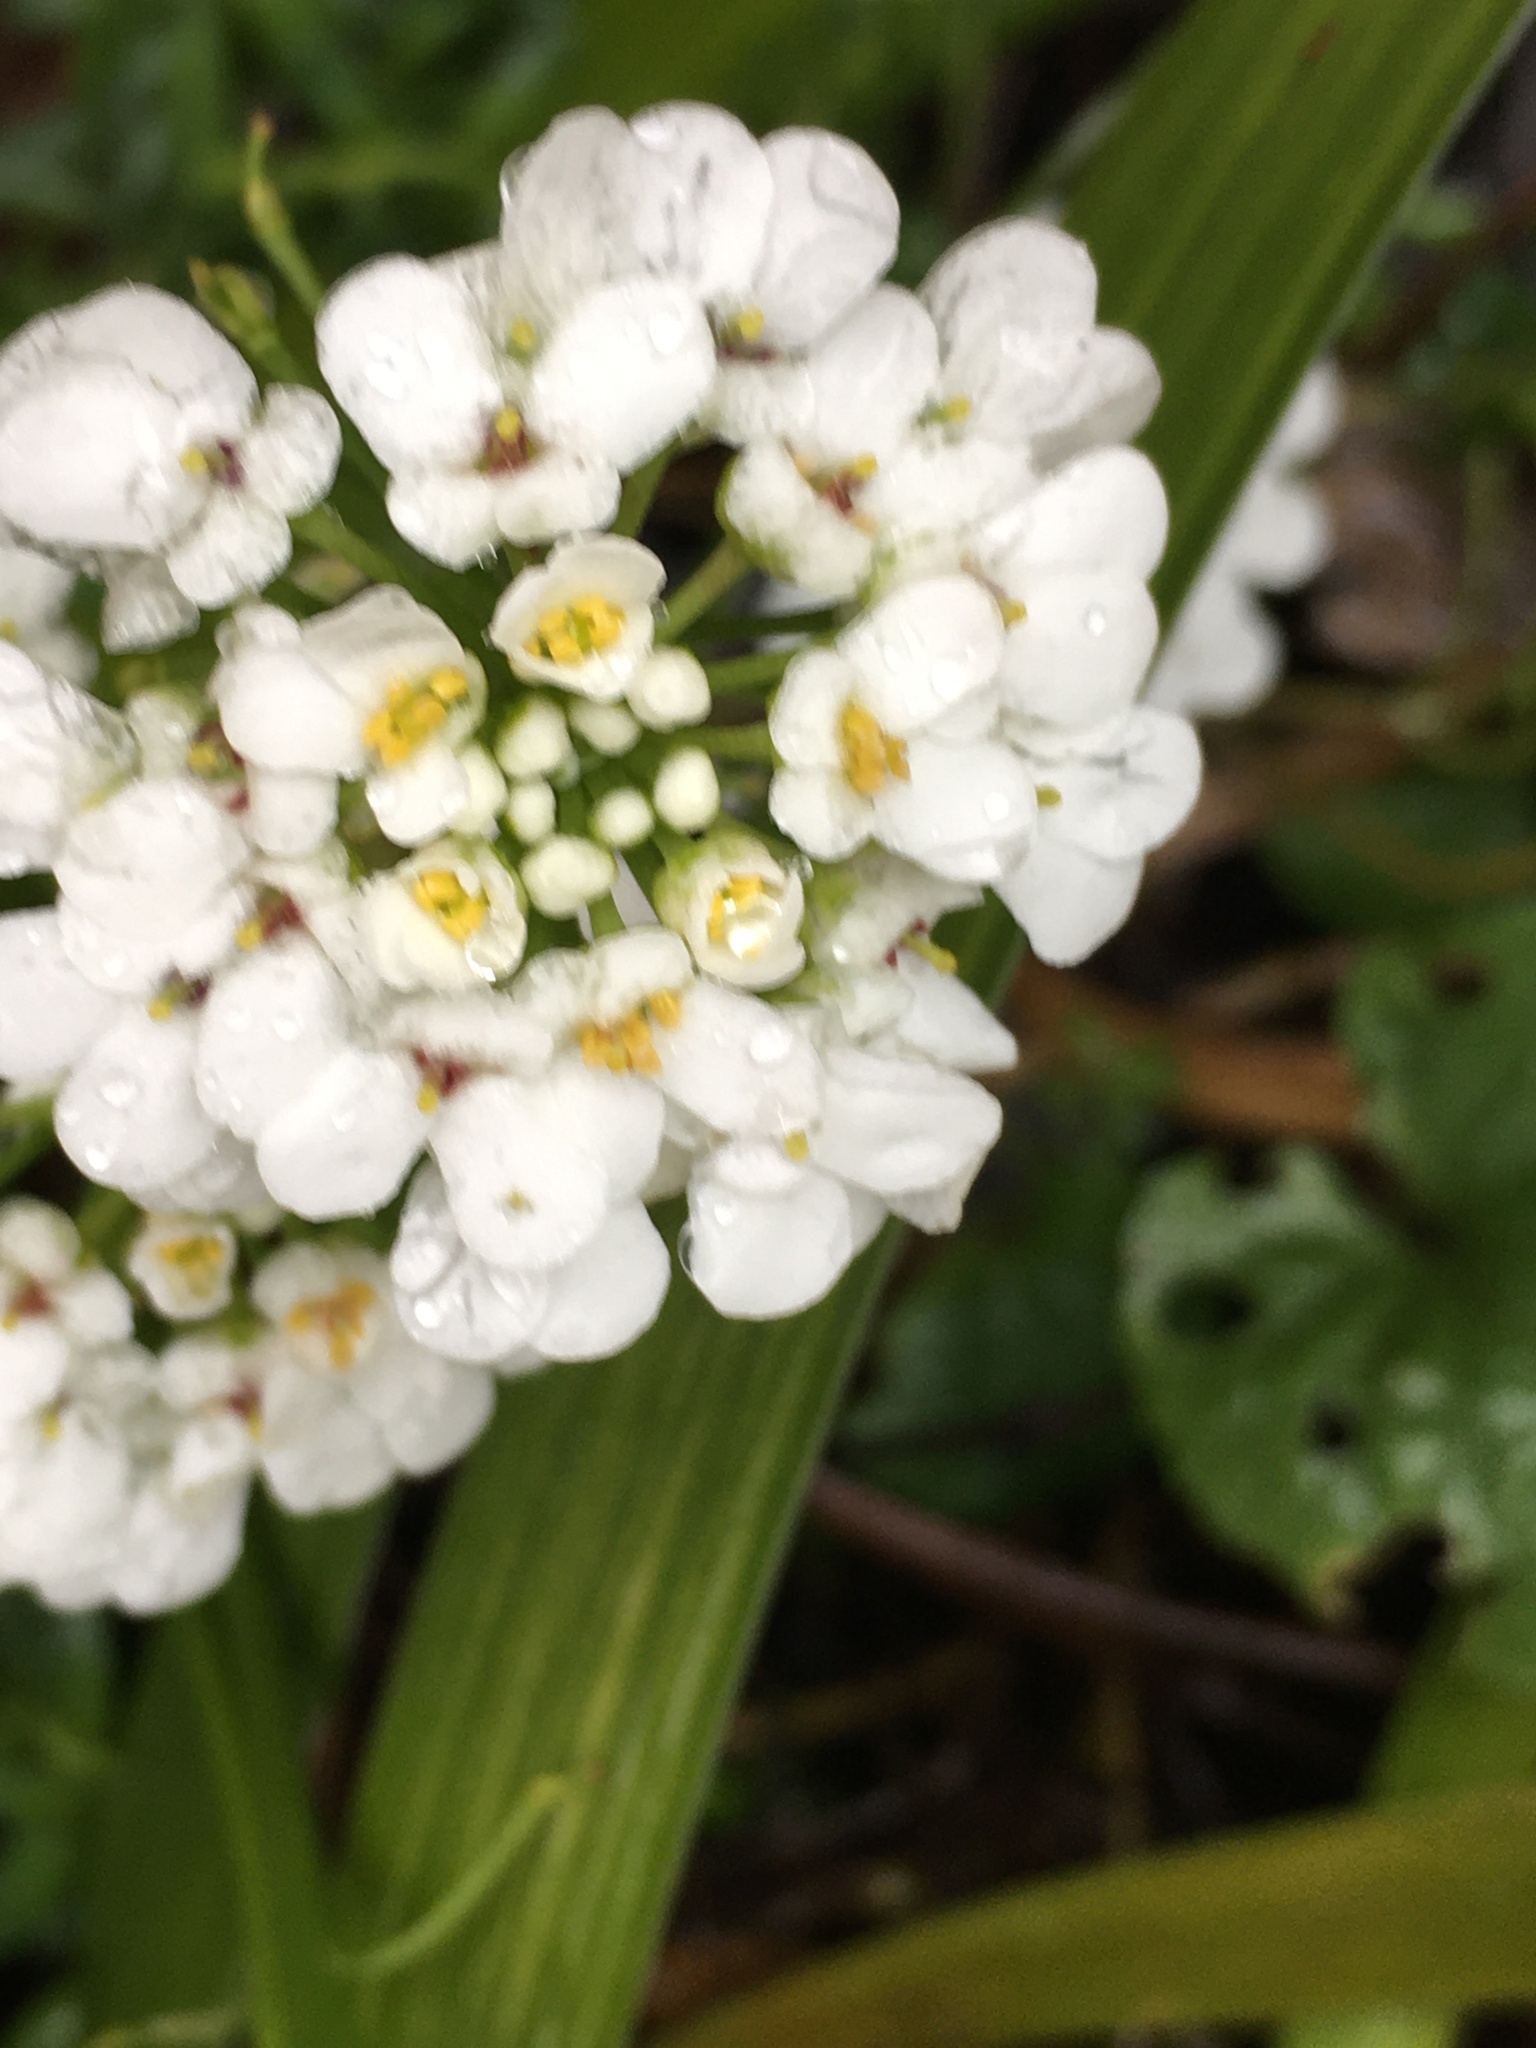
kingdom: Plantae
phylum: Tracheophyta
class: Magnoliopsida
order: Brassicales
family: Brassicaceae
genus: Lobularia
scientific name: Lobularia maritima
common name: Sweet alison
